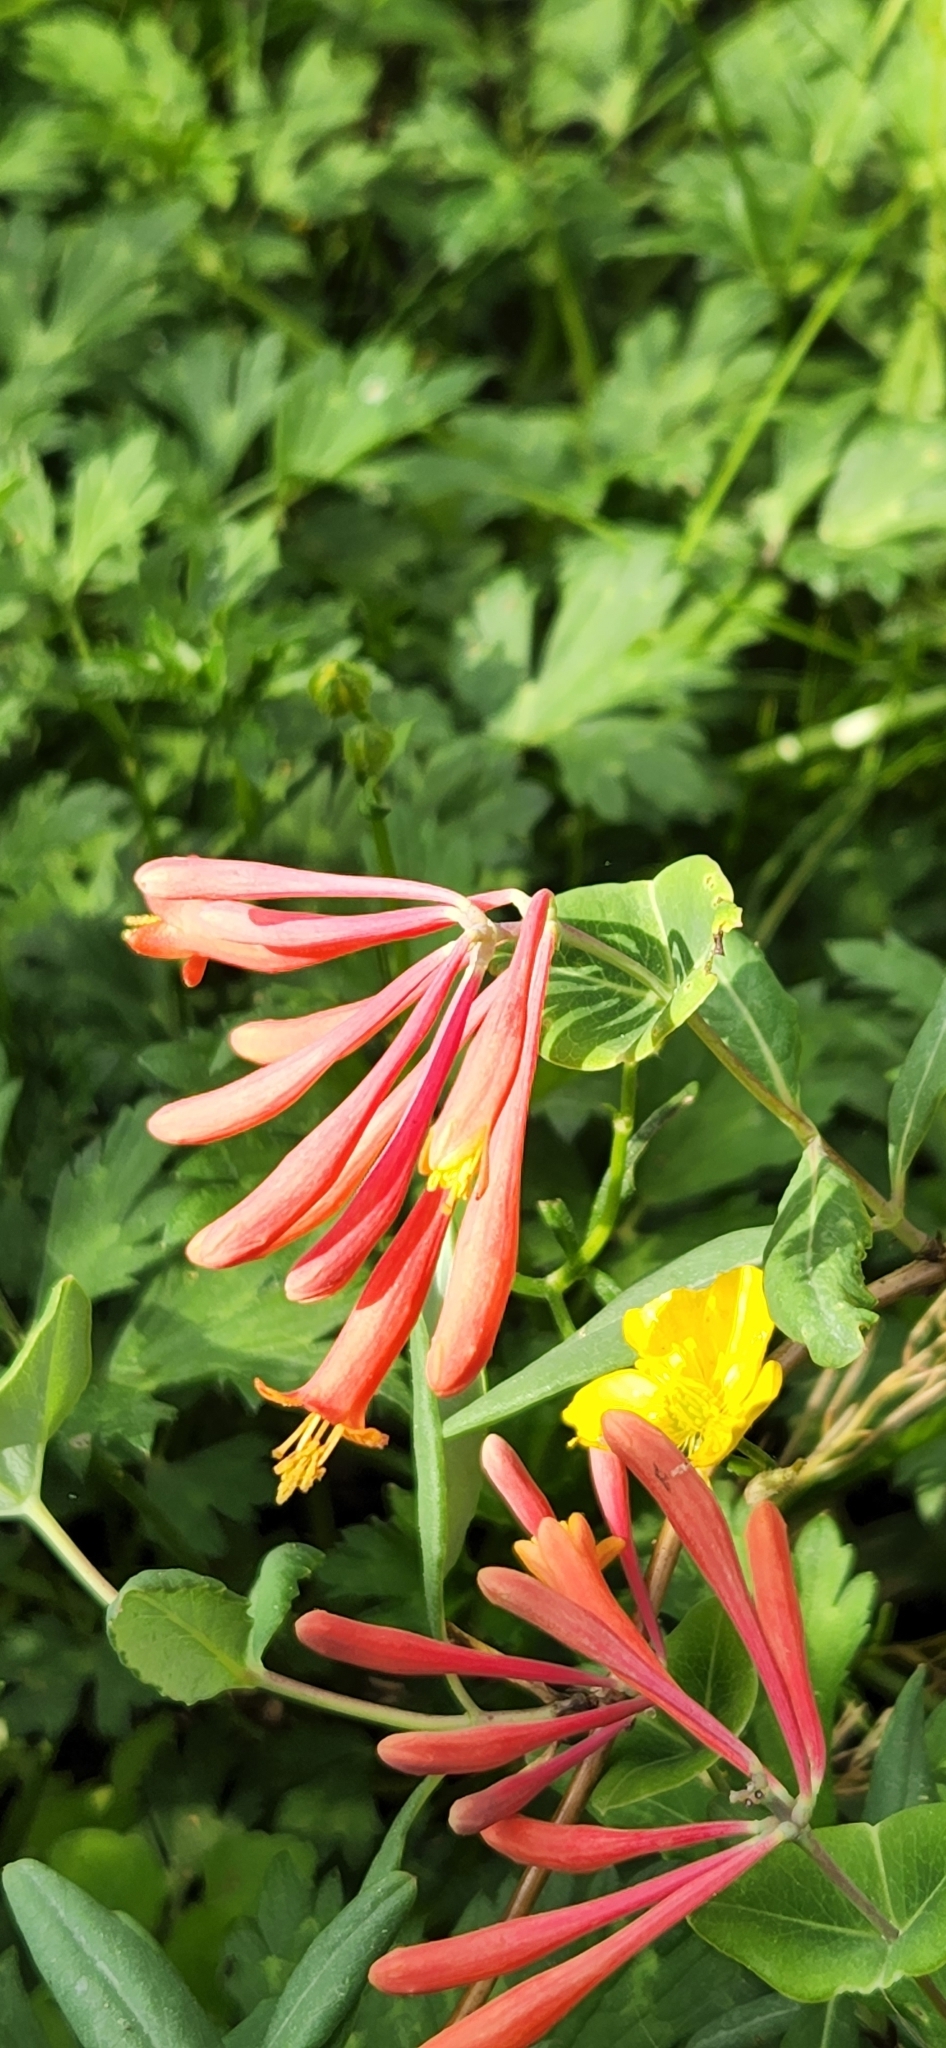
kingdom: Plantae
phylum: Tracheophyta
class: Magnoliopsida
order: Dipsacales
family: Caprifoliaceae
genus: Lonicera
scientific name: Lonicera sempervirens
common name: Coral honeysuckle
